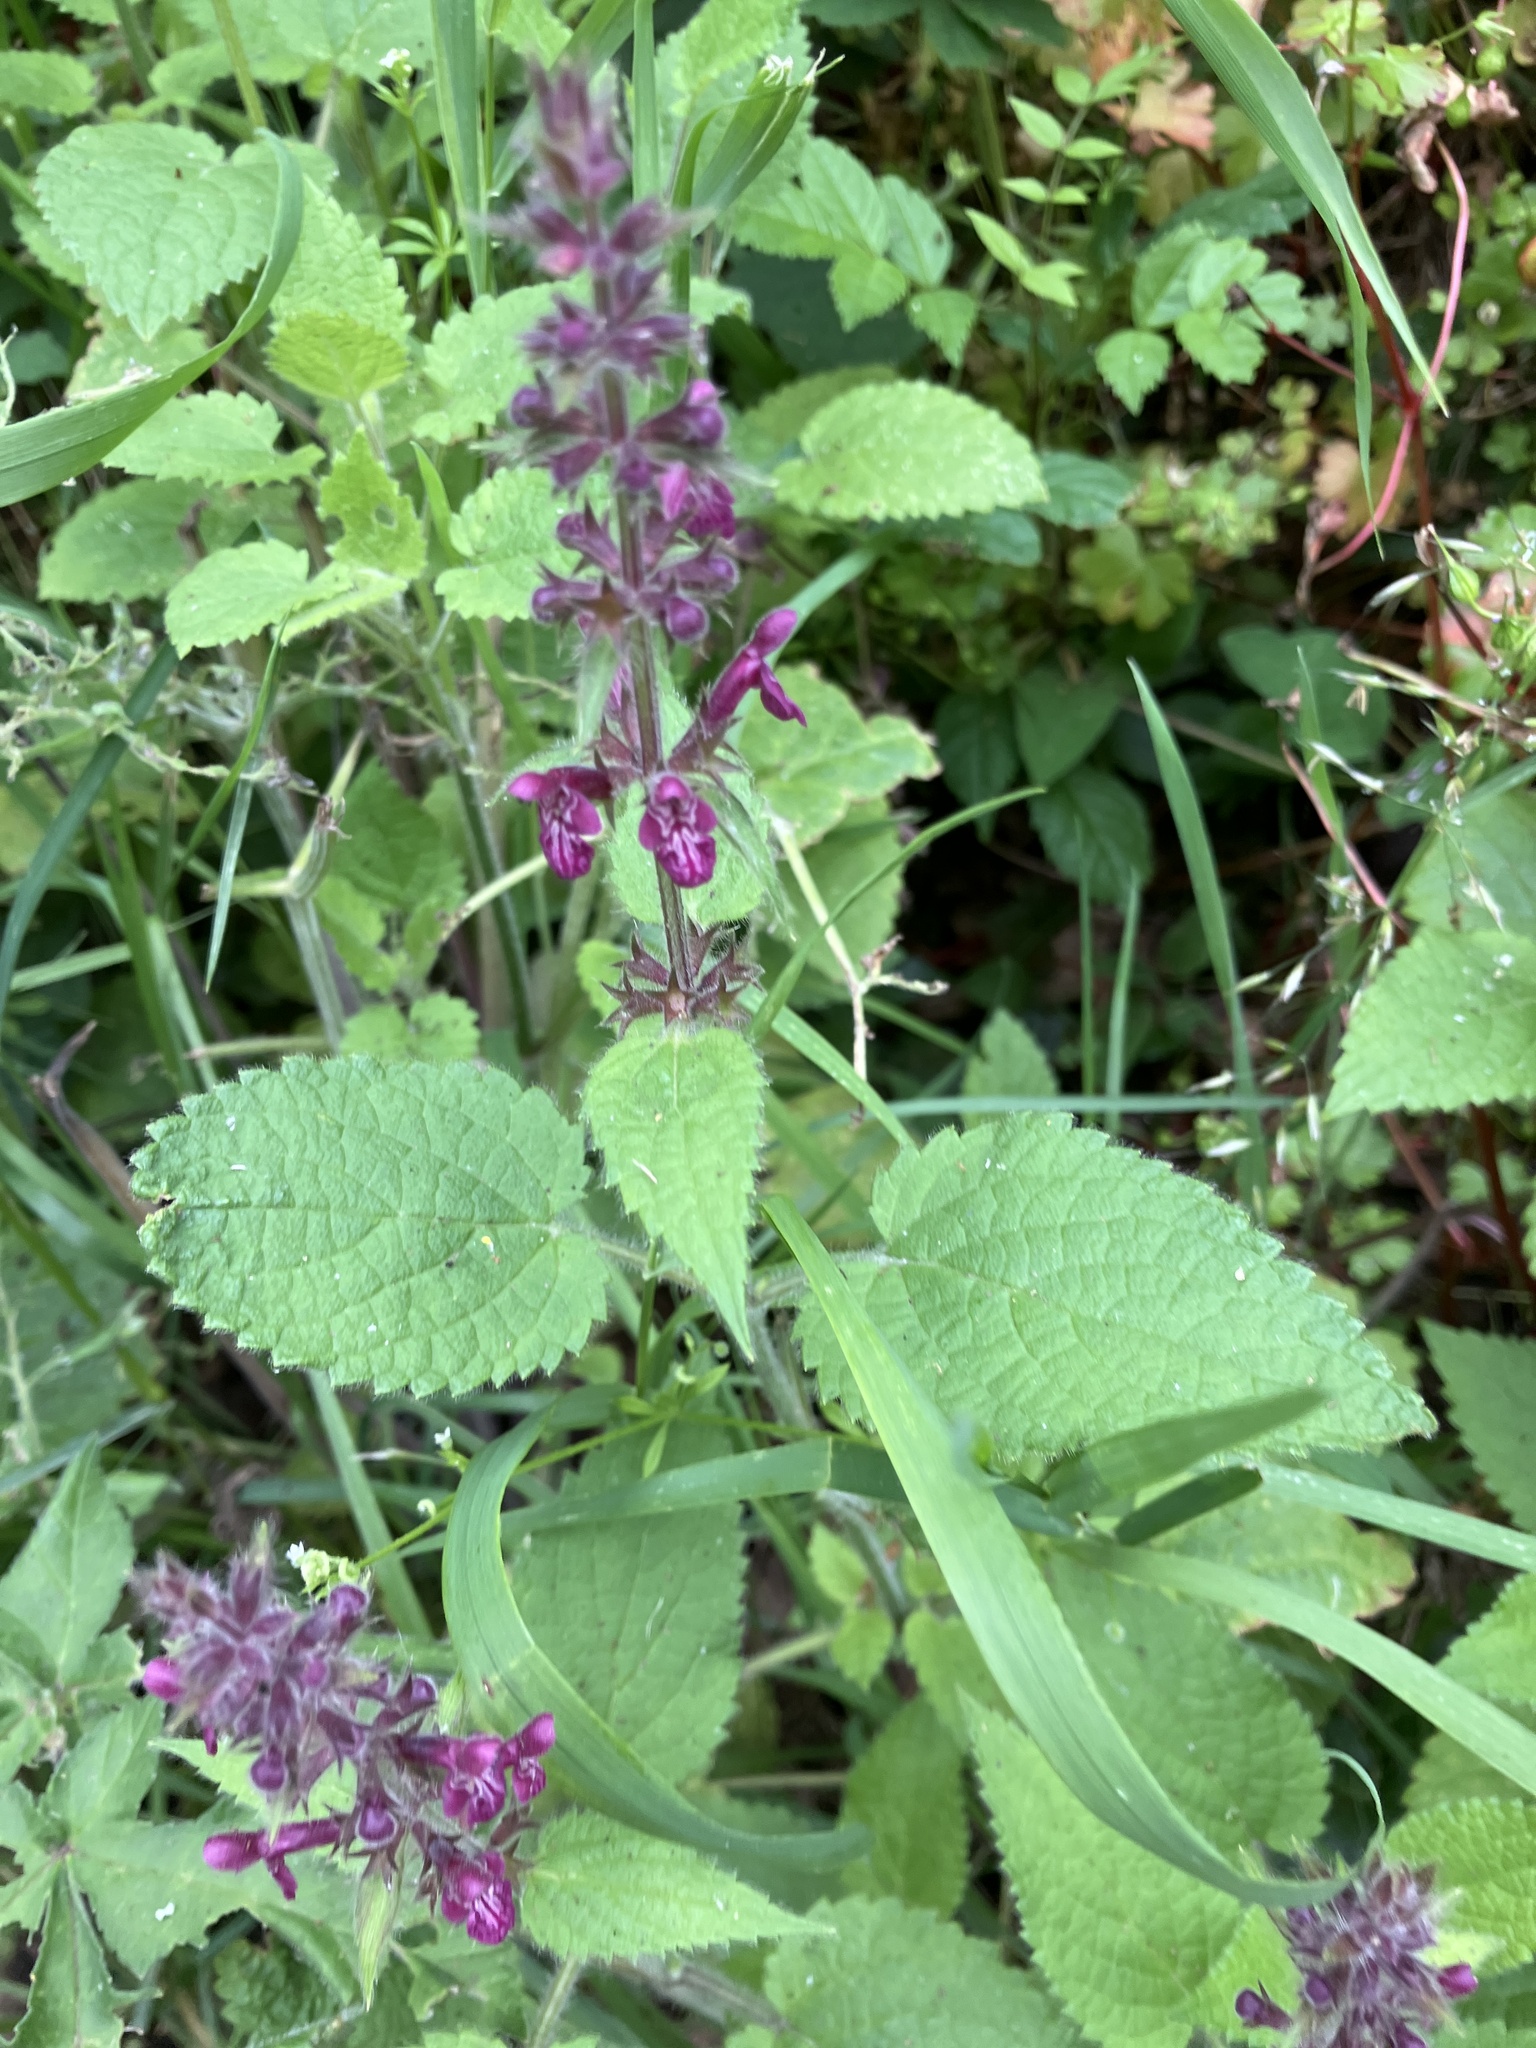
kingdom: Plantae
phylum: Tracheophyta
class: Magnoliopsida
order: Lamiales
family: Lamiaceae
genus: Stachys
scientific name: Stachys sylvatica
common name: Hedge woundwort
